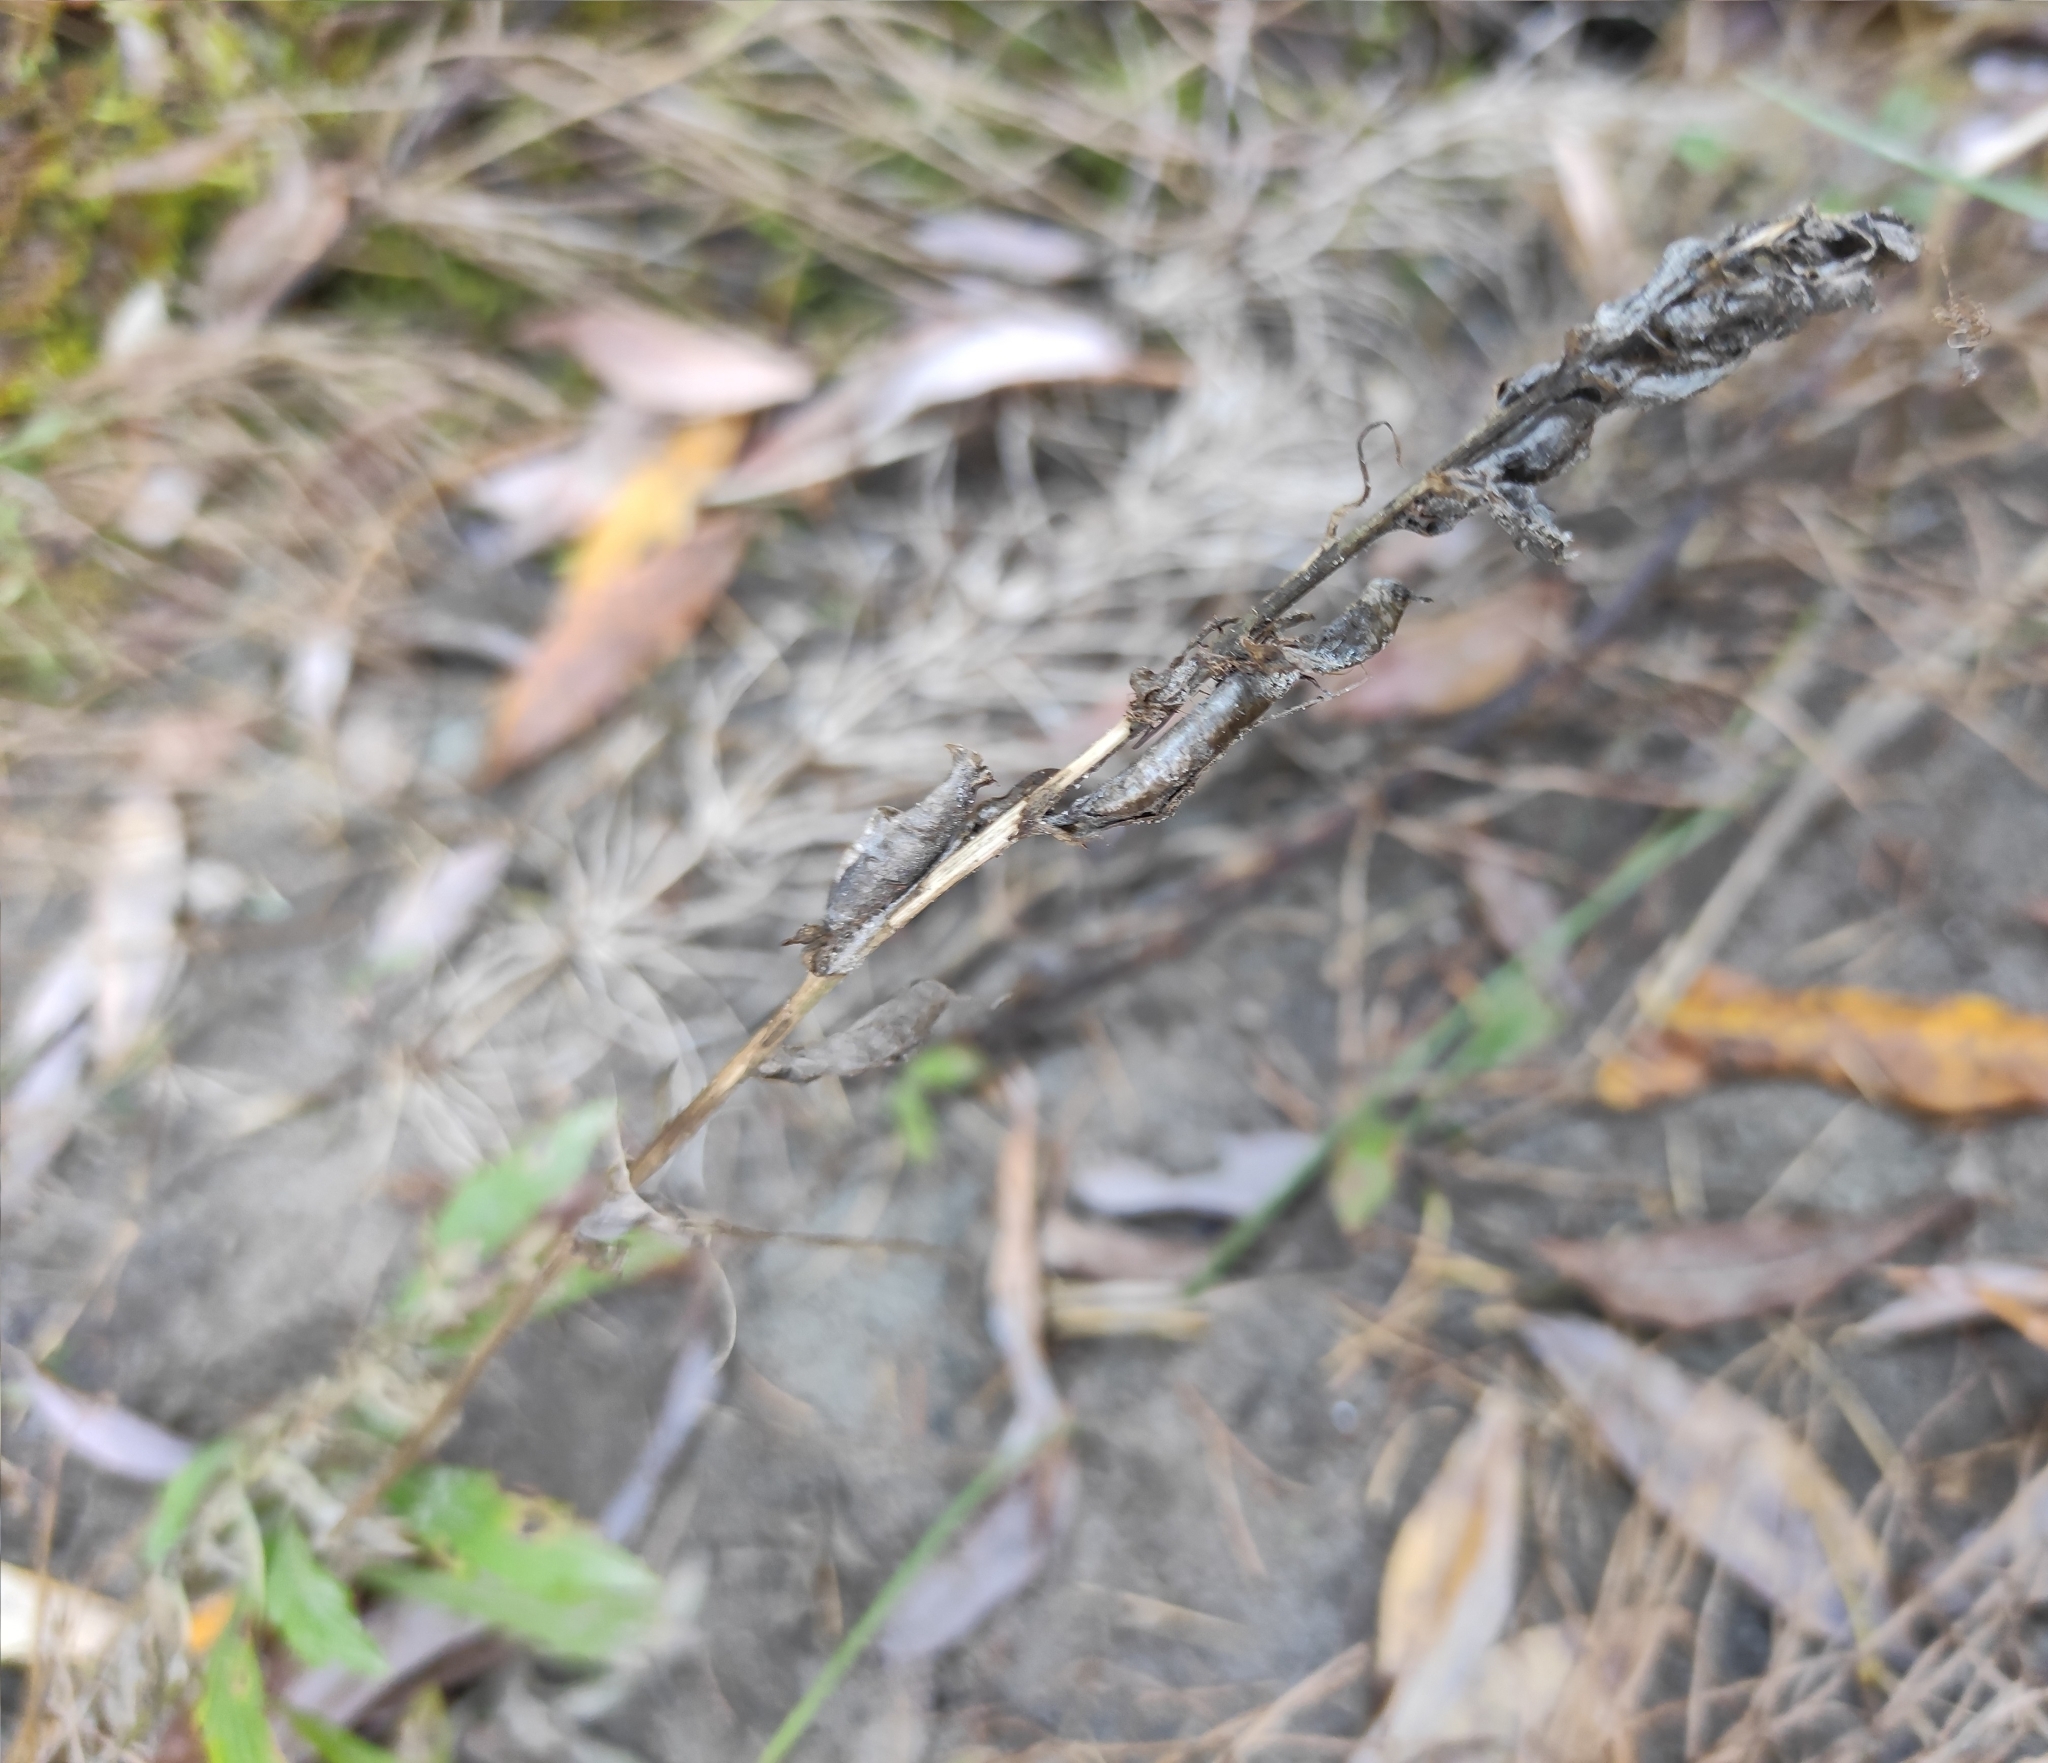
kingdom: Plantae
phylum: Tracheophyta
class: Magnoliopsida
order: Fabales
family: Fabaceae
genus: Oxytropis
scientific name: Oxytropis strobilacea
